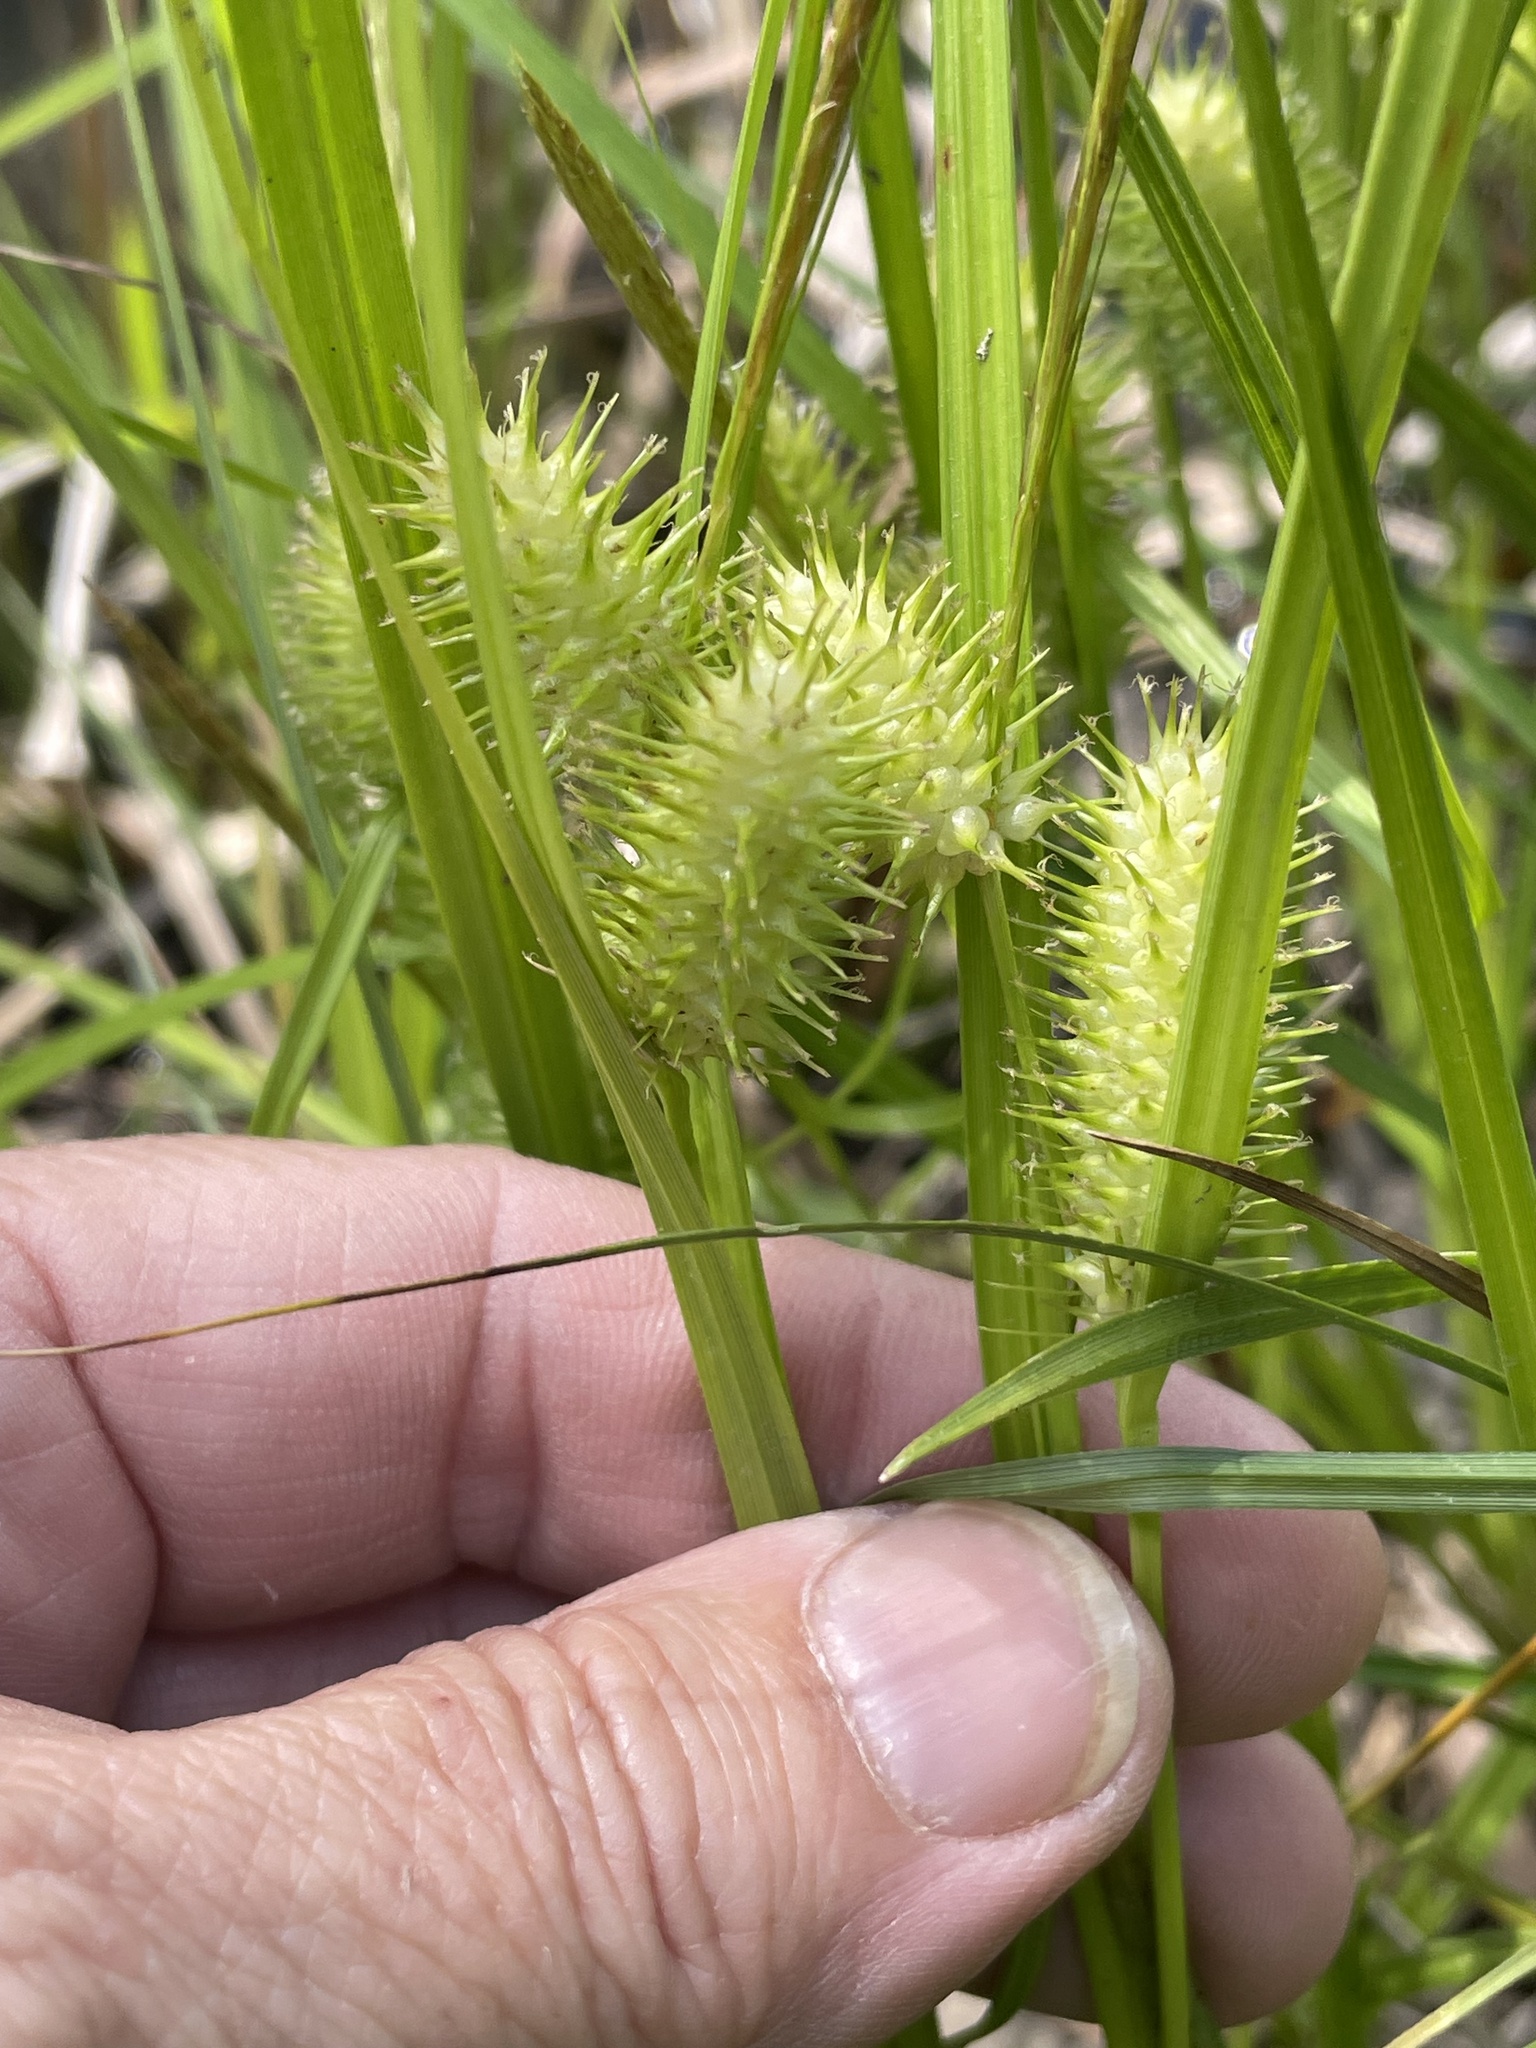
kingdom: Plantae
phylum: Tracheophyta
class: Liliopsida
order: Poales
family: Cyperaceae
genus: Carex
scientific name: Carex lurida
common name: Sallow sedge
